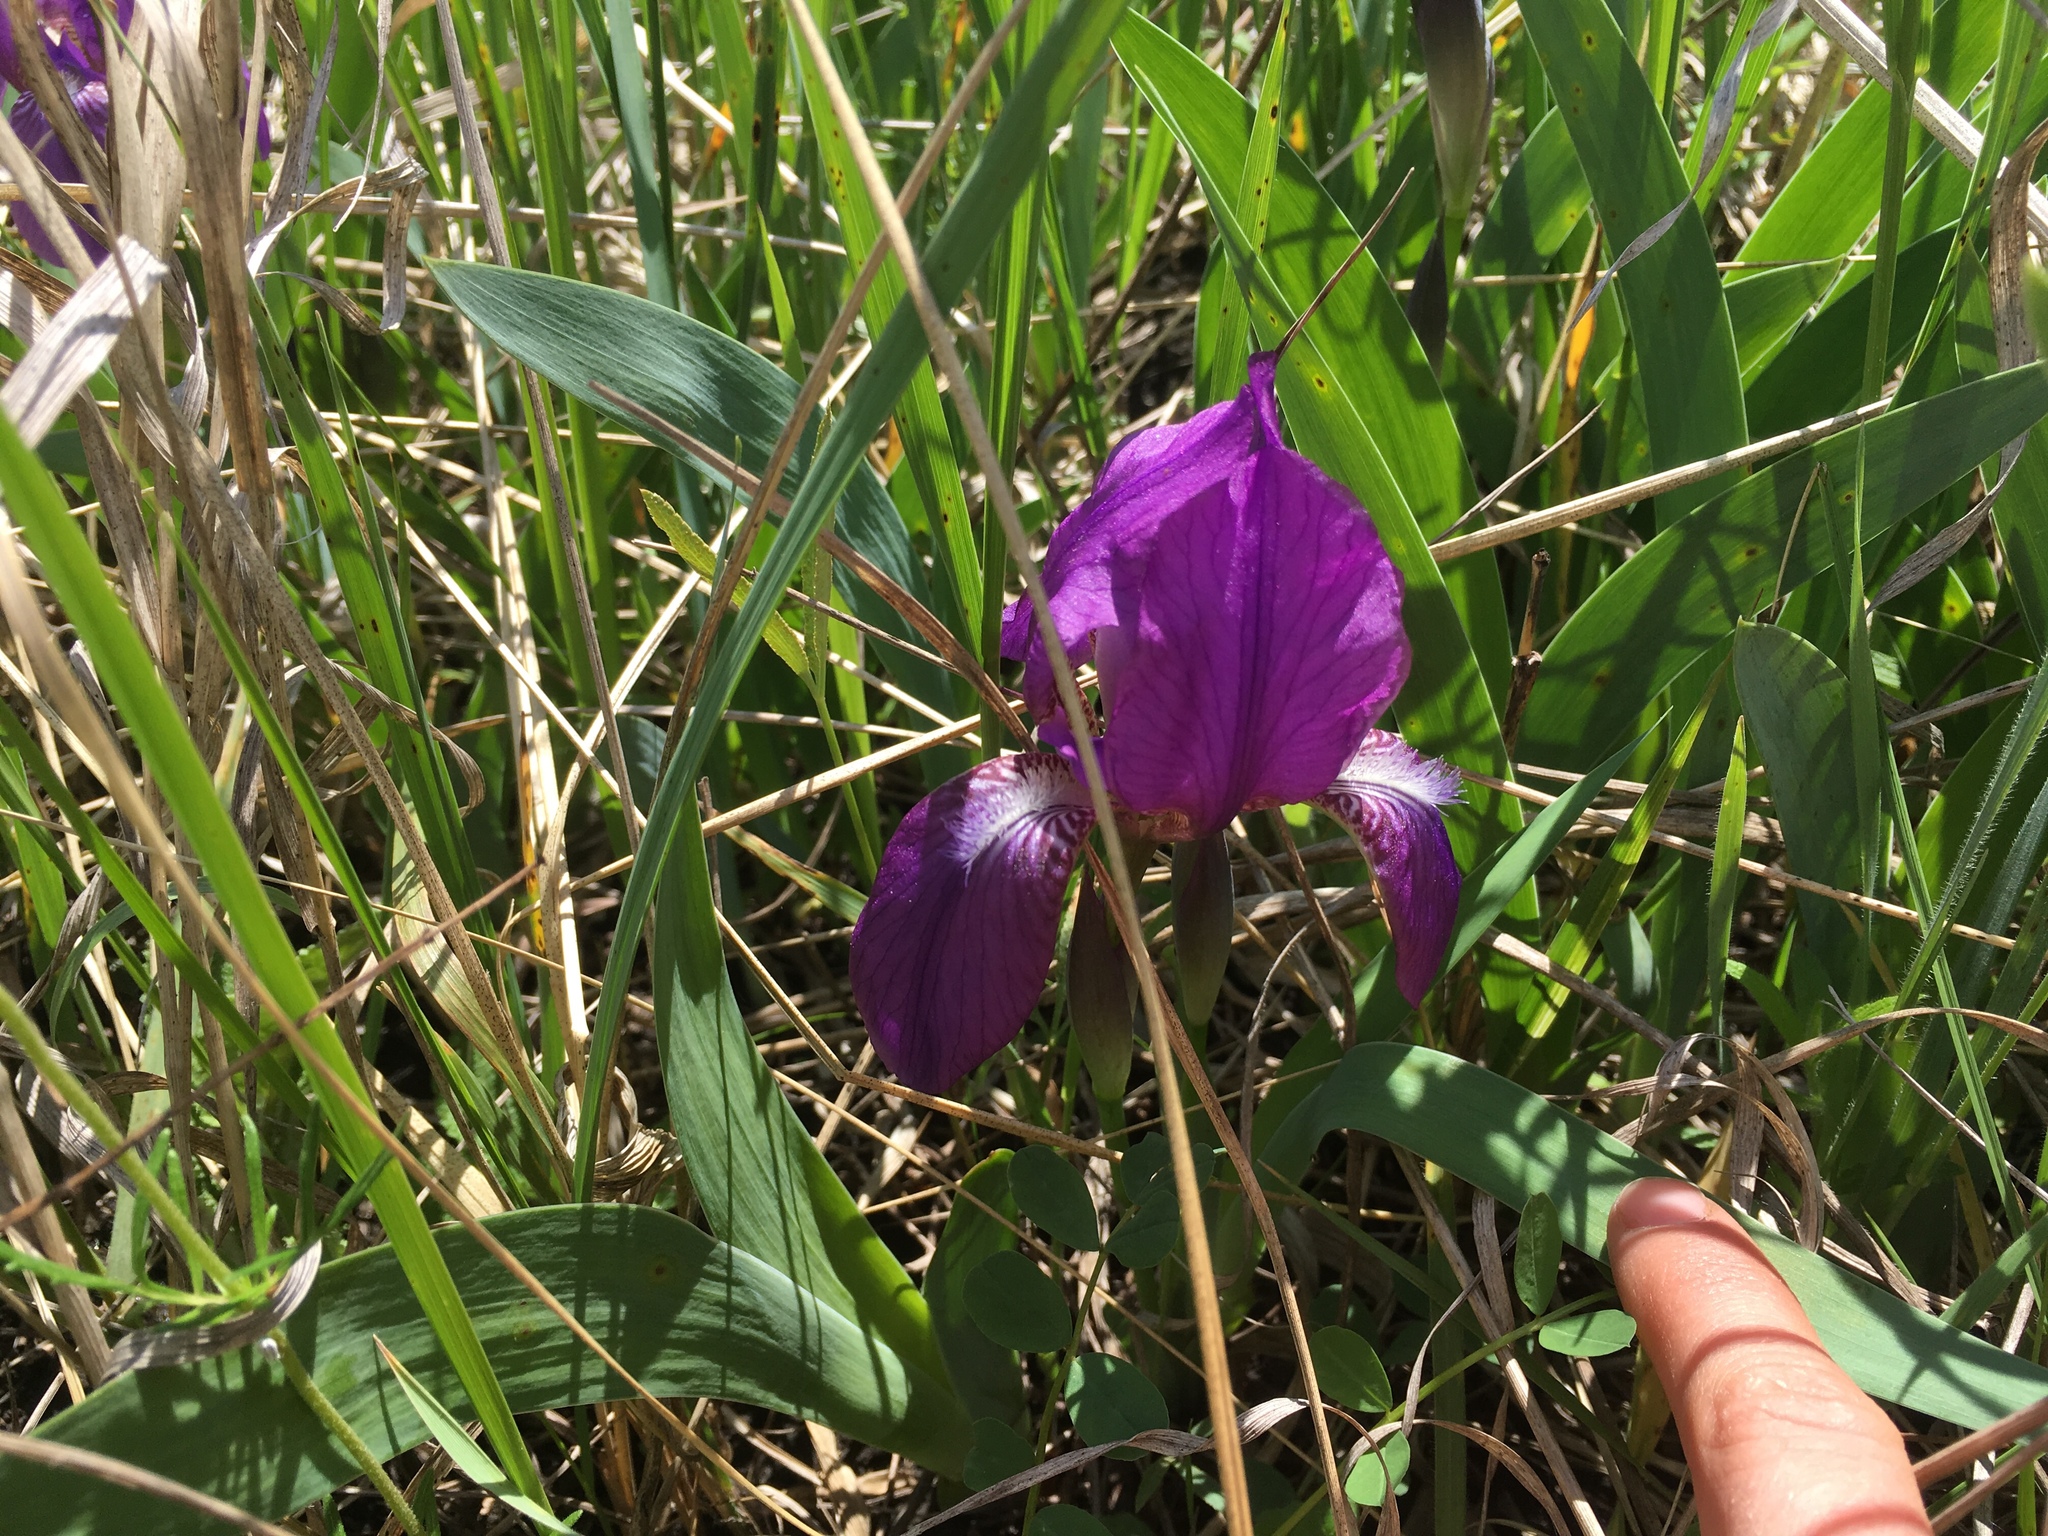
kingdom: Plantae
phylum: Tracheophyta
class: Liliopsida
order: Asparagales
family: Iridaceae
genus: Iris
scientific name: Iris aphylla
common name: Stool iris
